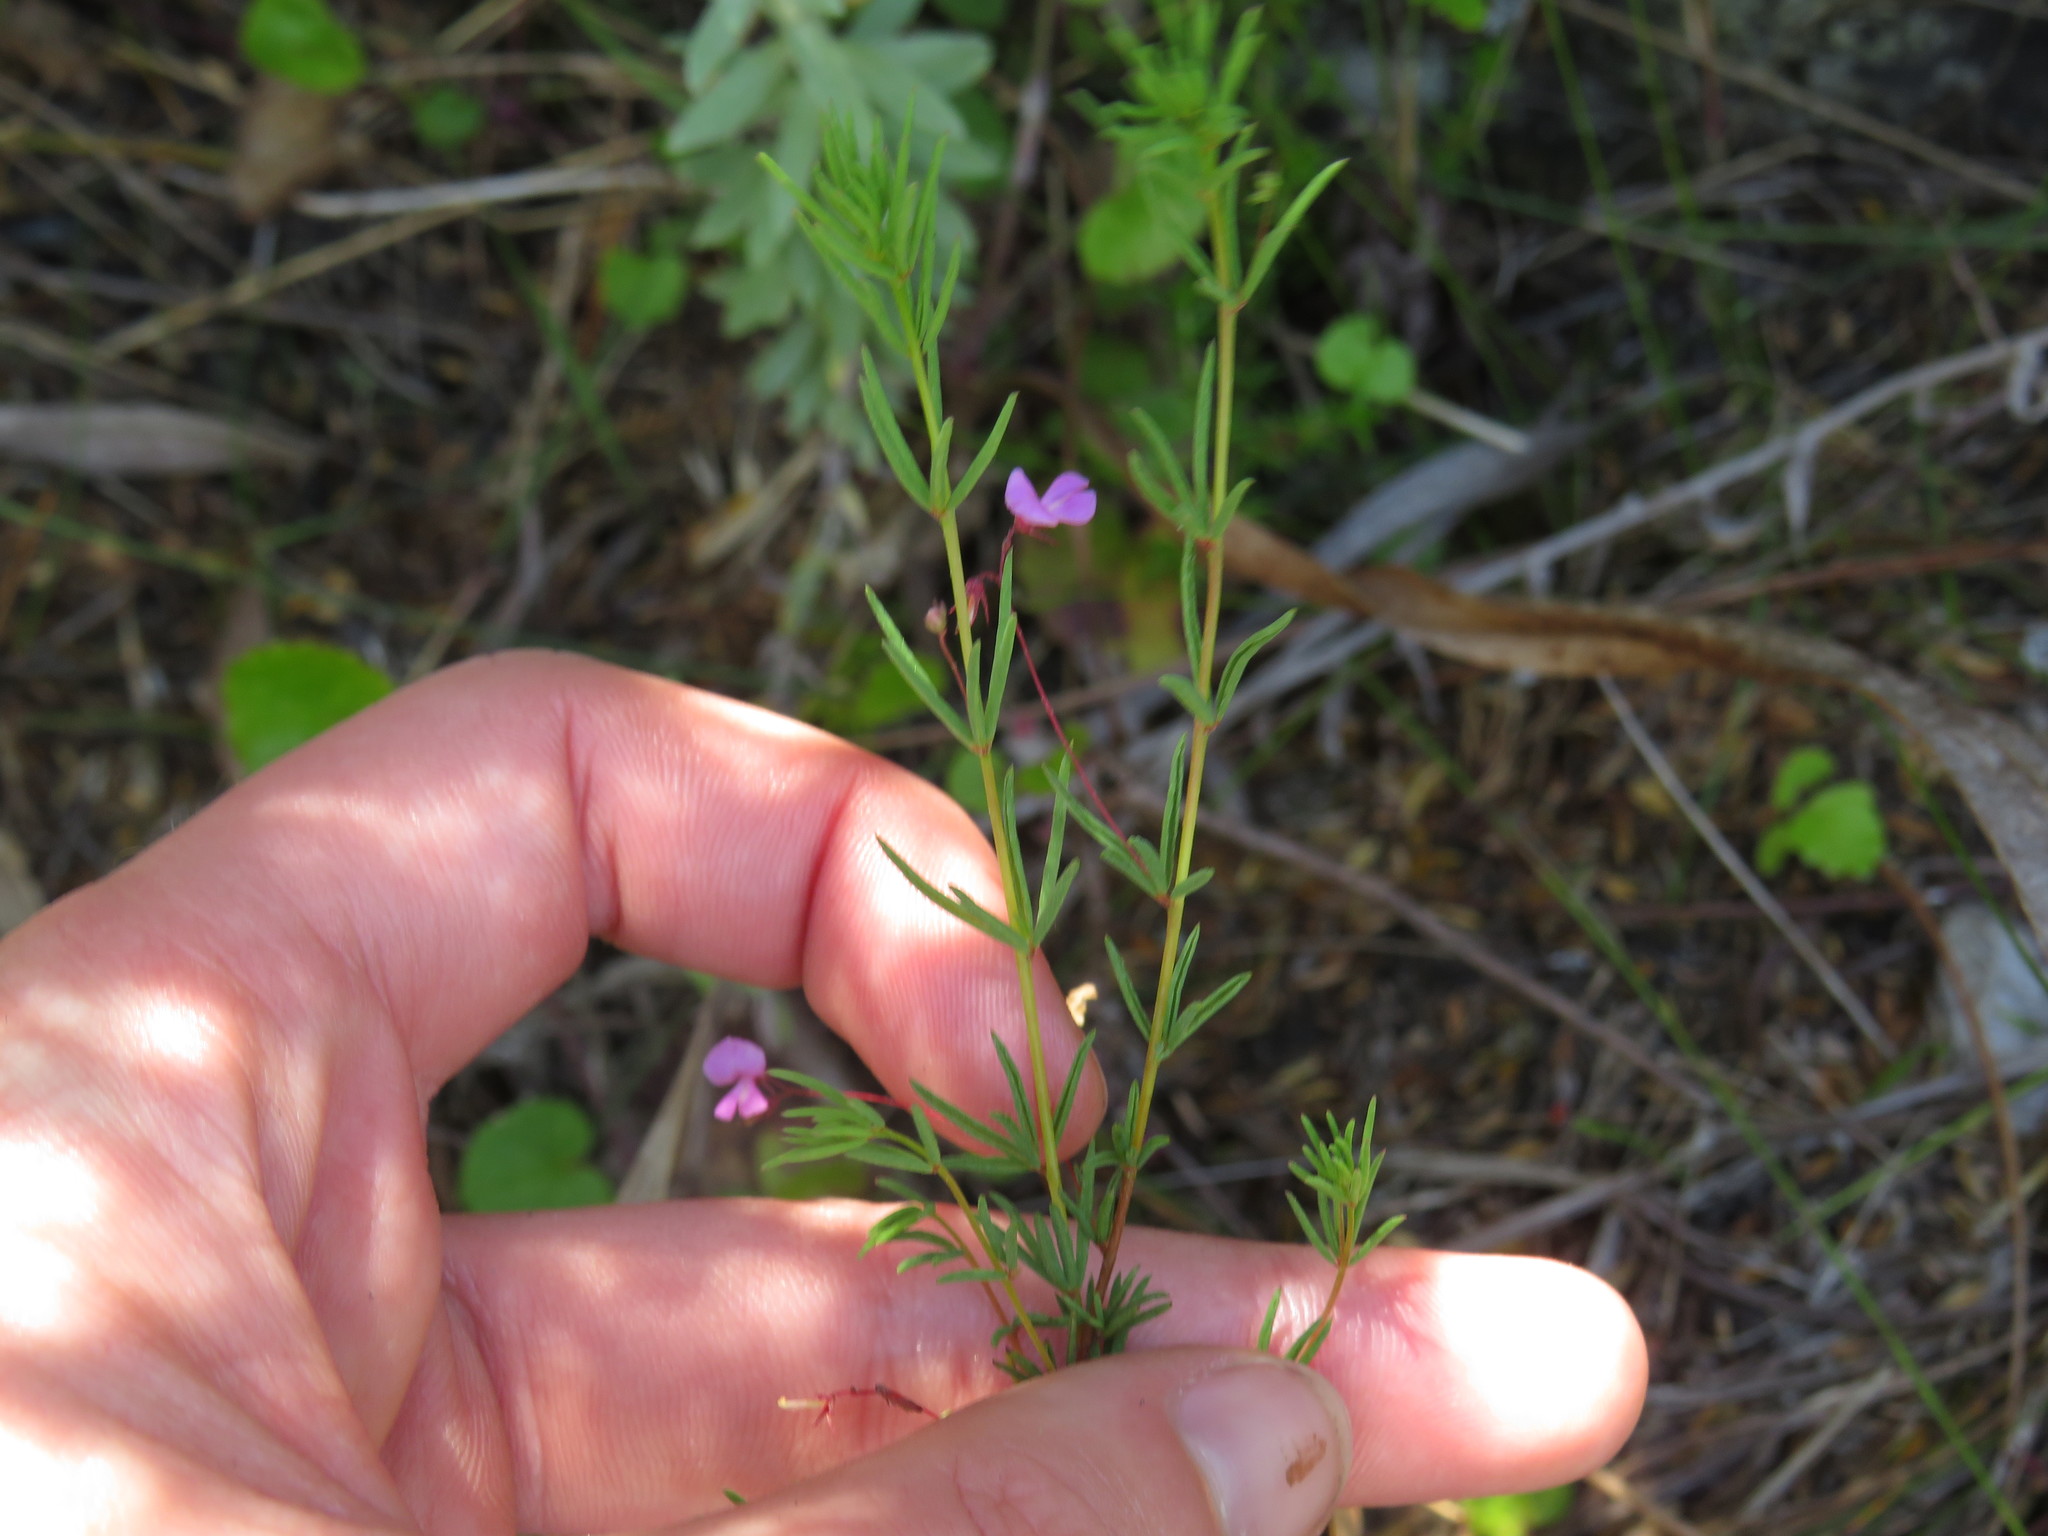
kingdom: Plantae
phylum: Tracheophyta
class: Magnoliopsida
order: Fabales
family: Fabaceae
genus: Indigofera
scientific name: Indigofera filicaulis
